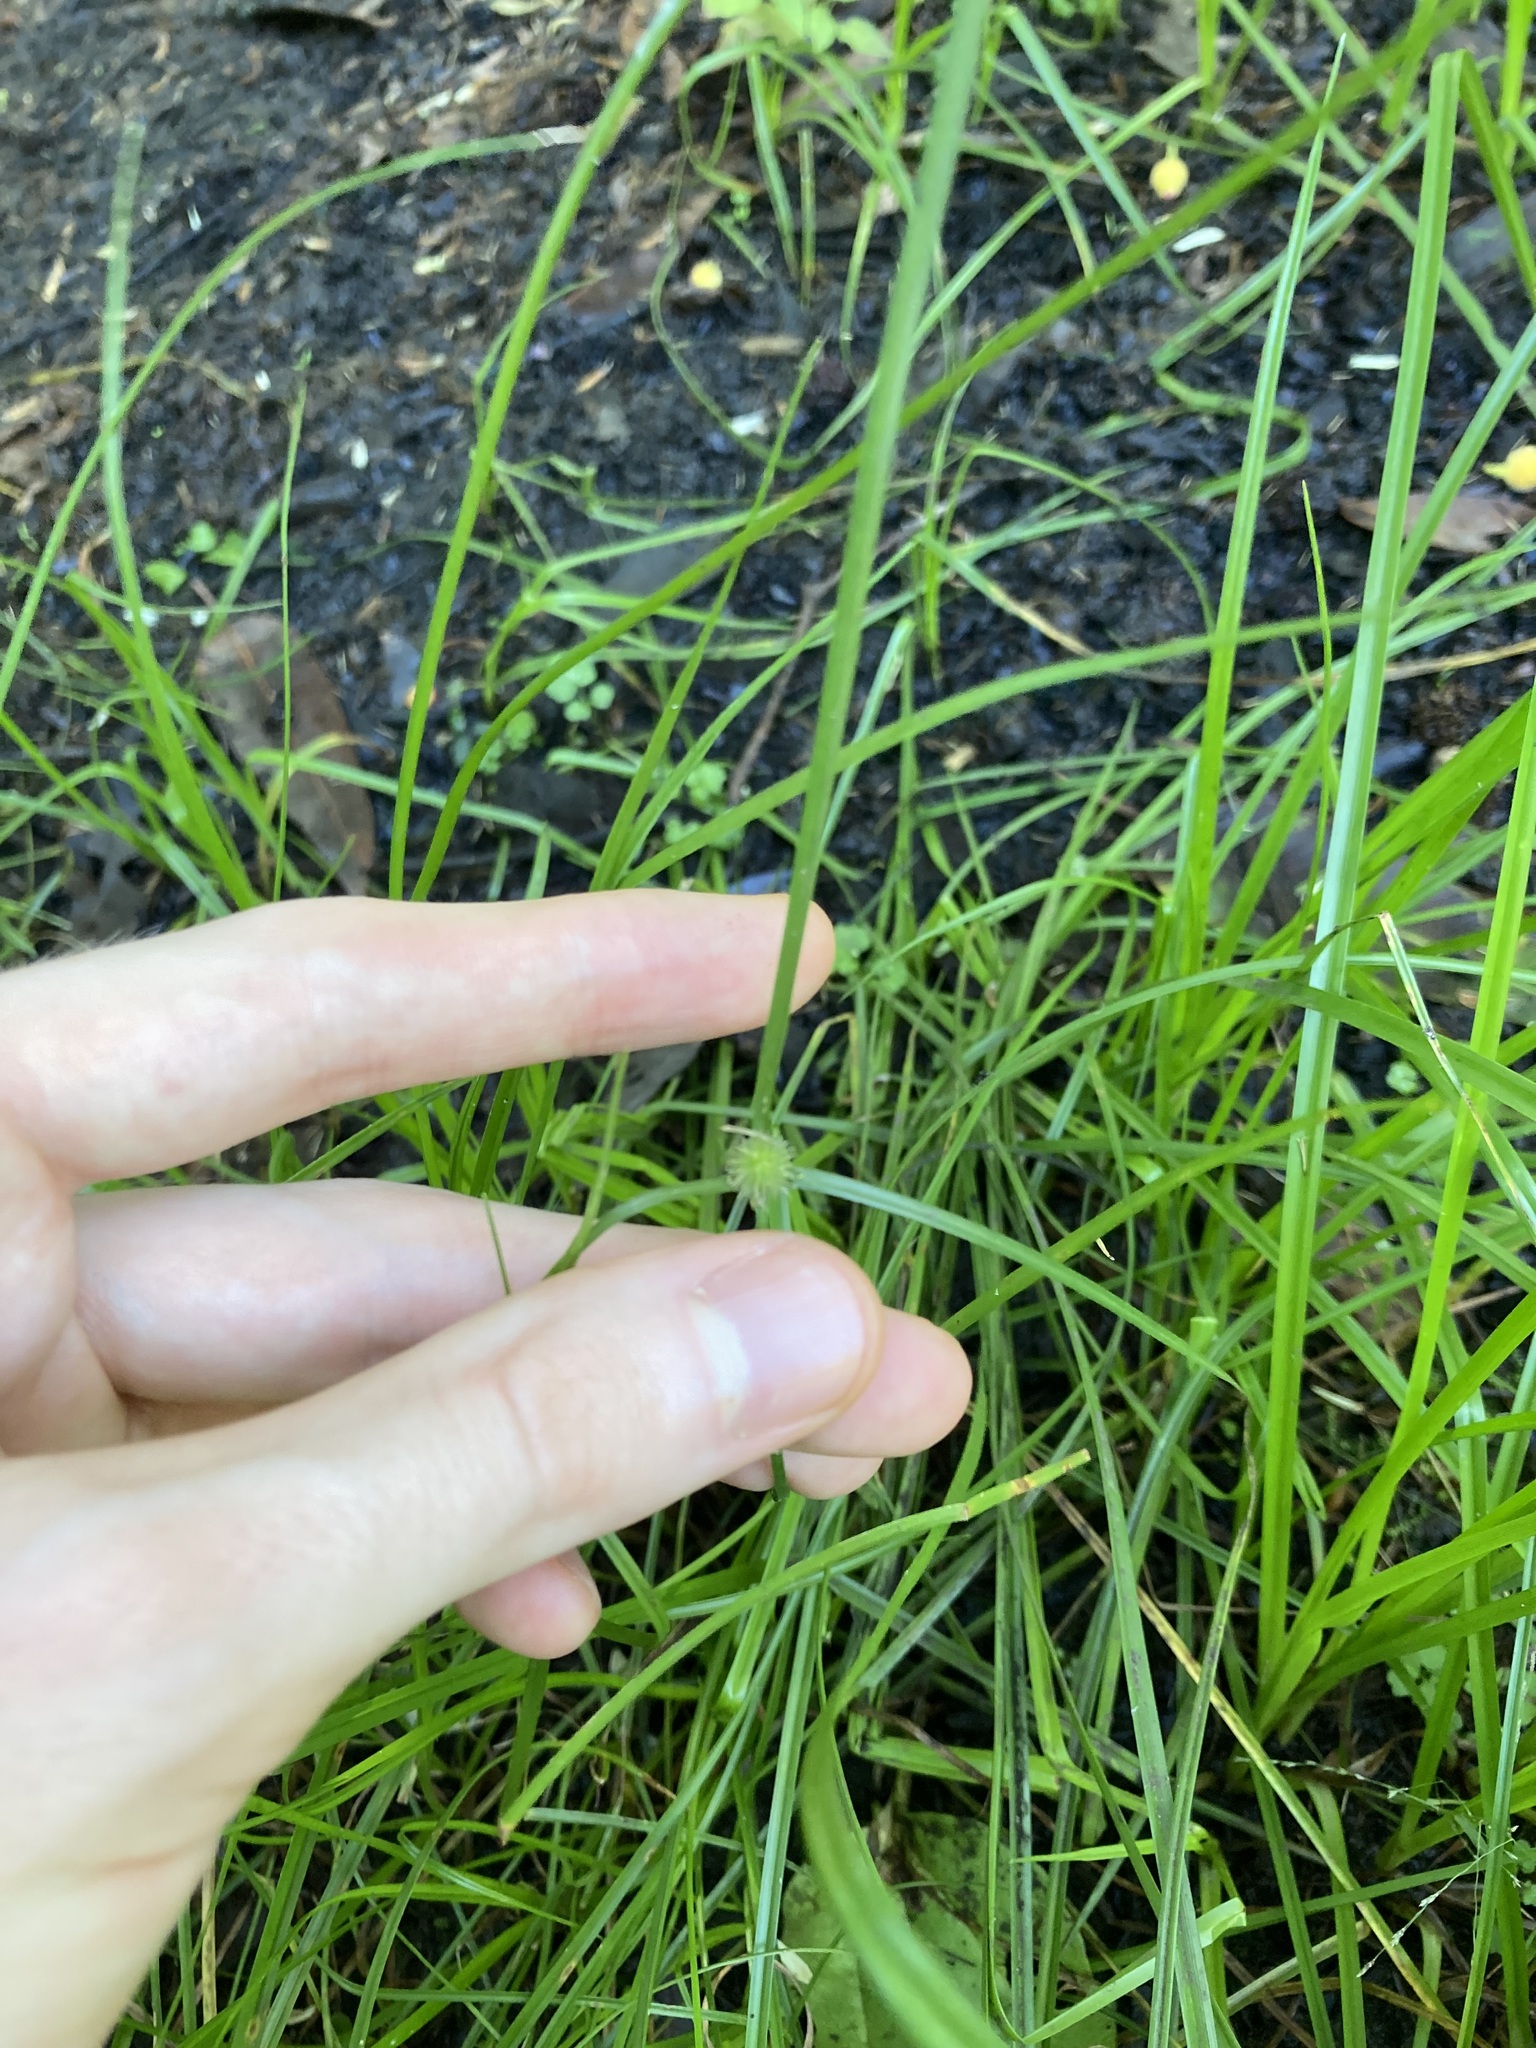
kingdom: Plantae
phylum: Tracheophyta
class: Liliopsida
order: Poales
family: Cyperaceae
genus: Cyperus
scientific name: Cyperus brevifolius
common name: Globe kyllinga
